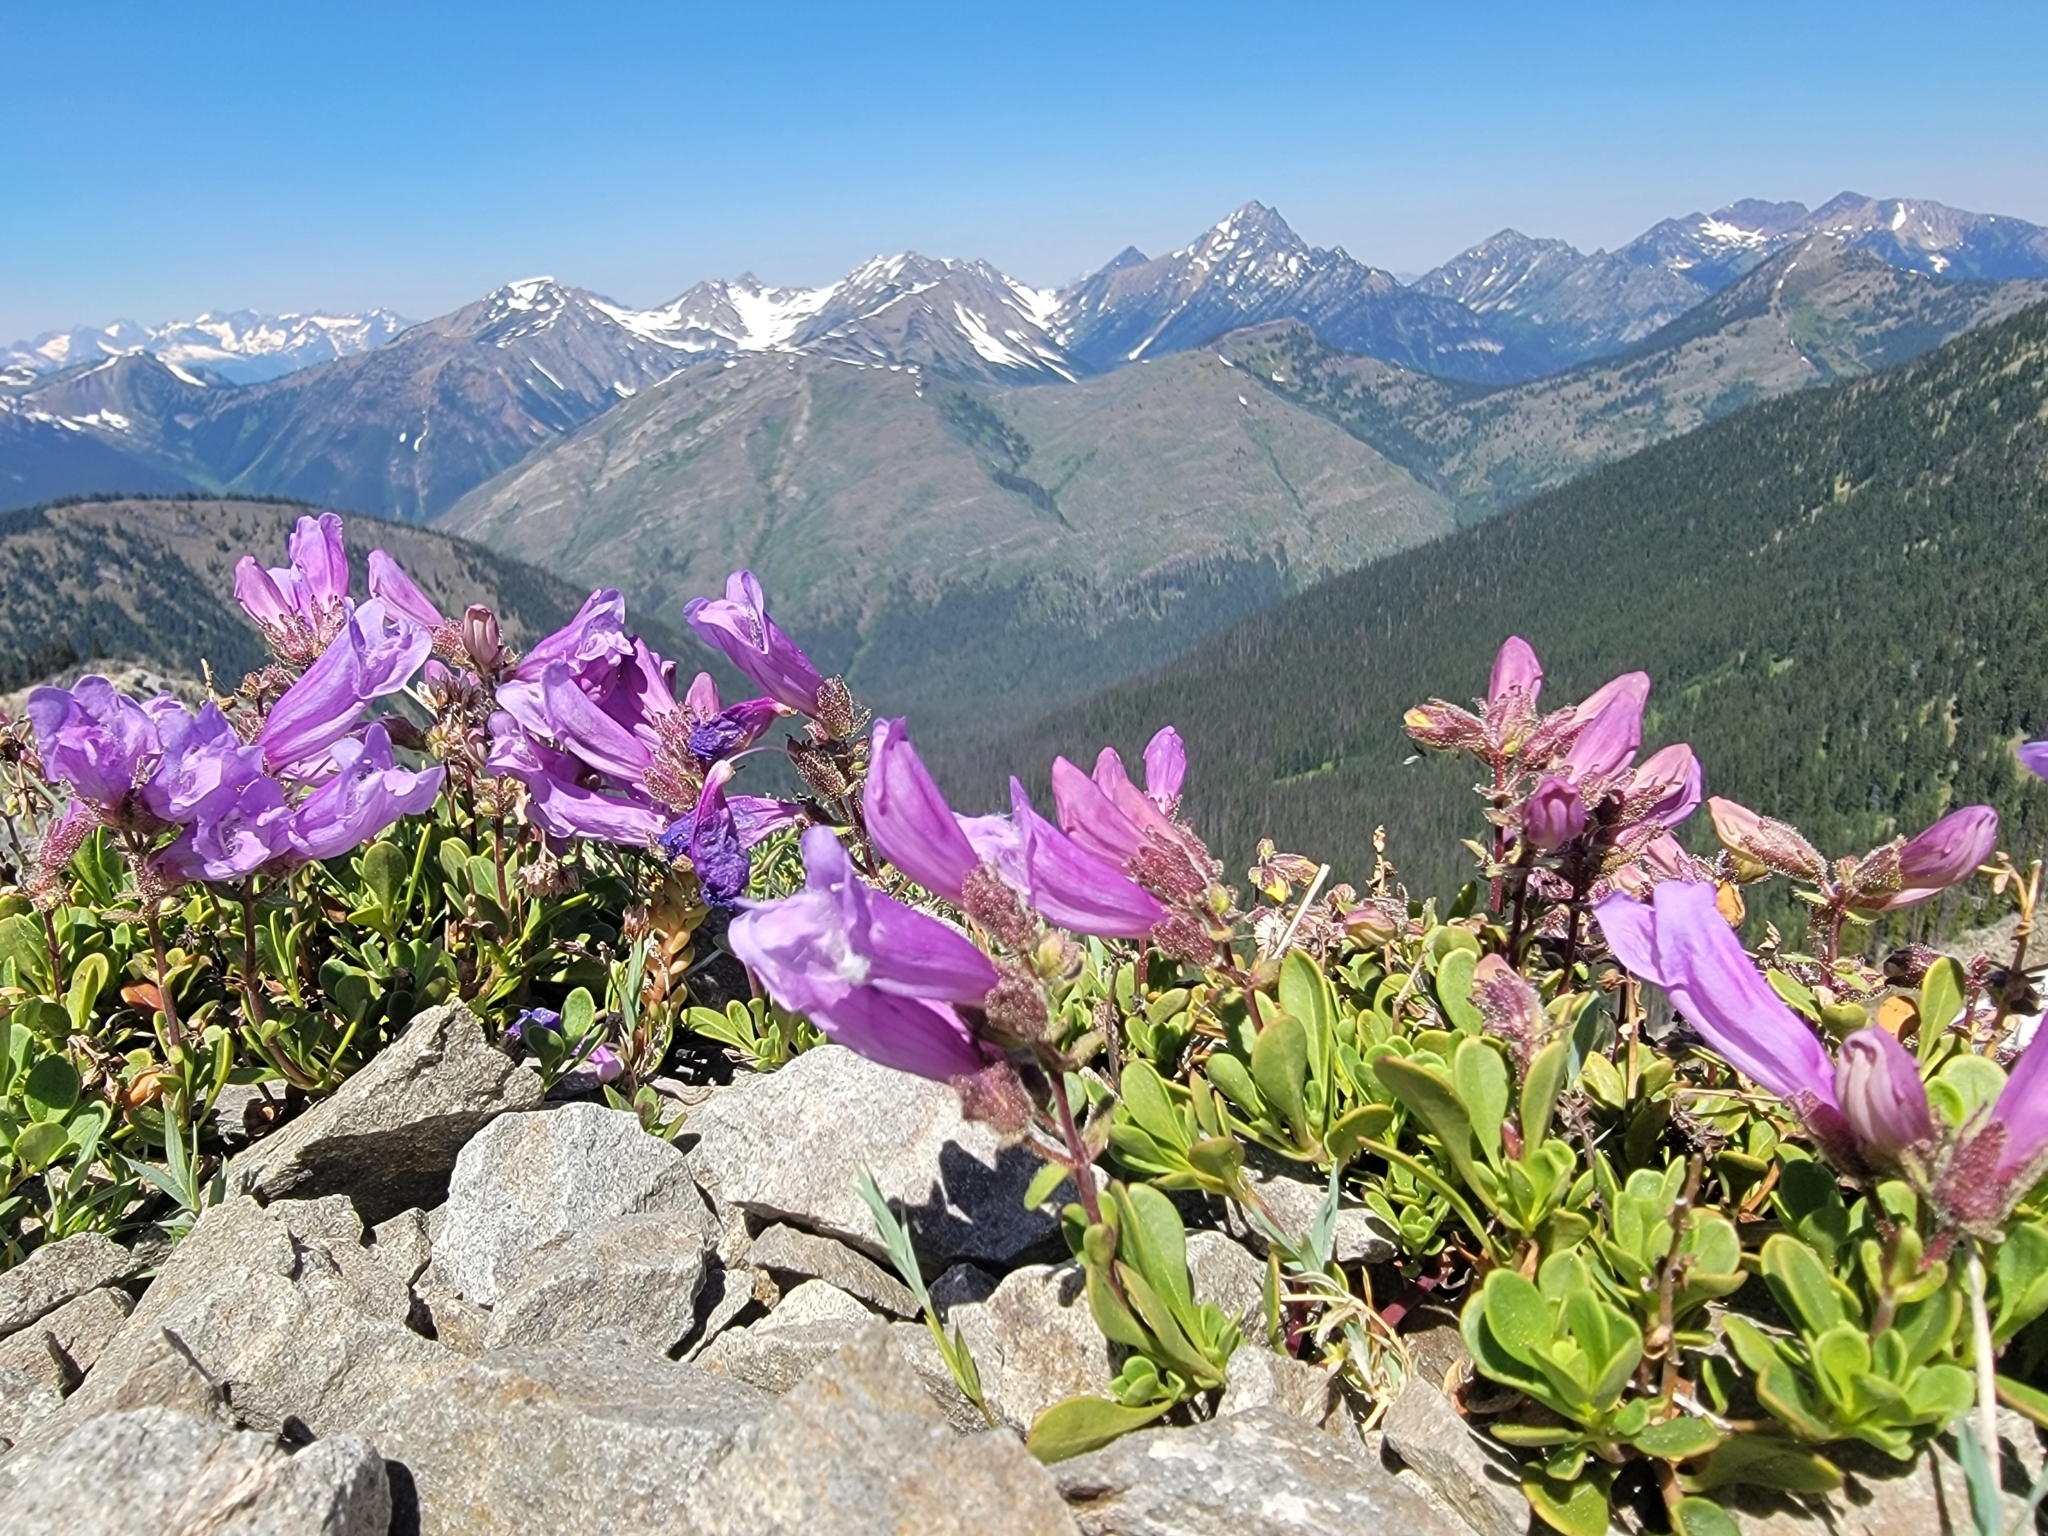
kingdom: Plantae
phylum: Tracheophyta
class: Magnoliopsida
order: Lamiales
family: Plantaginaceae
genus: Penstemon
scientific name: Penstemon davidsonii
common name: Davidson's penstemon
